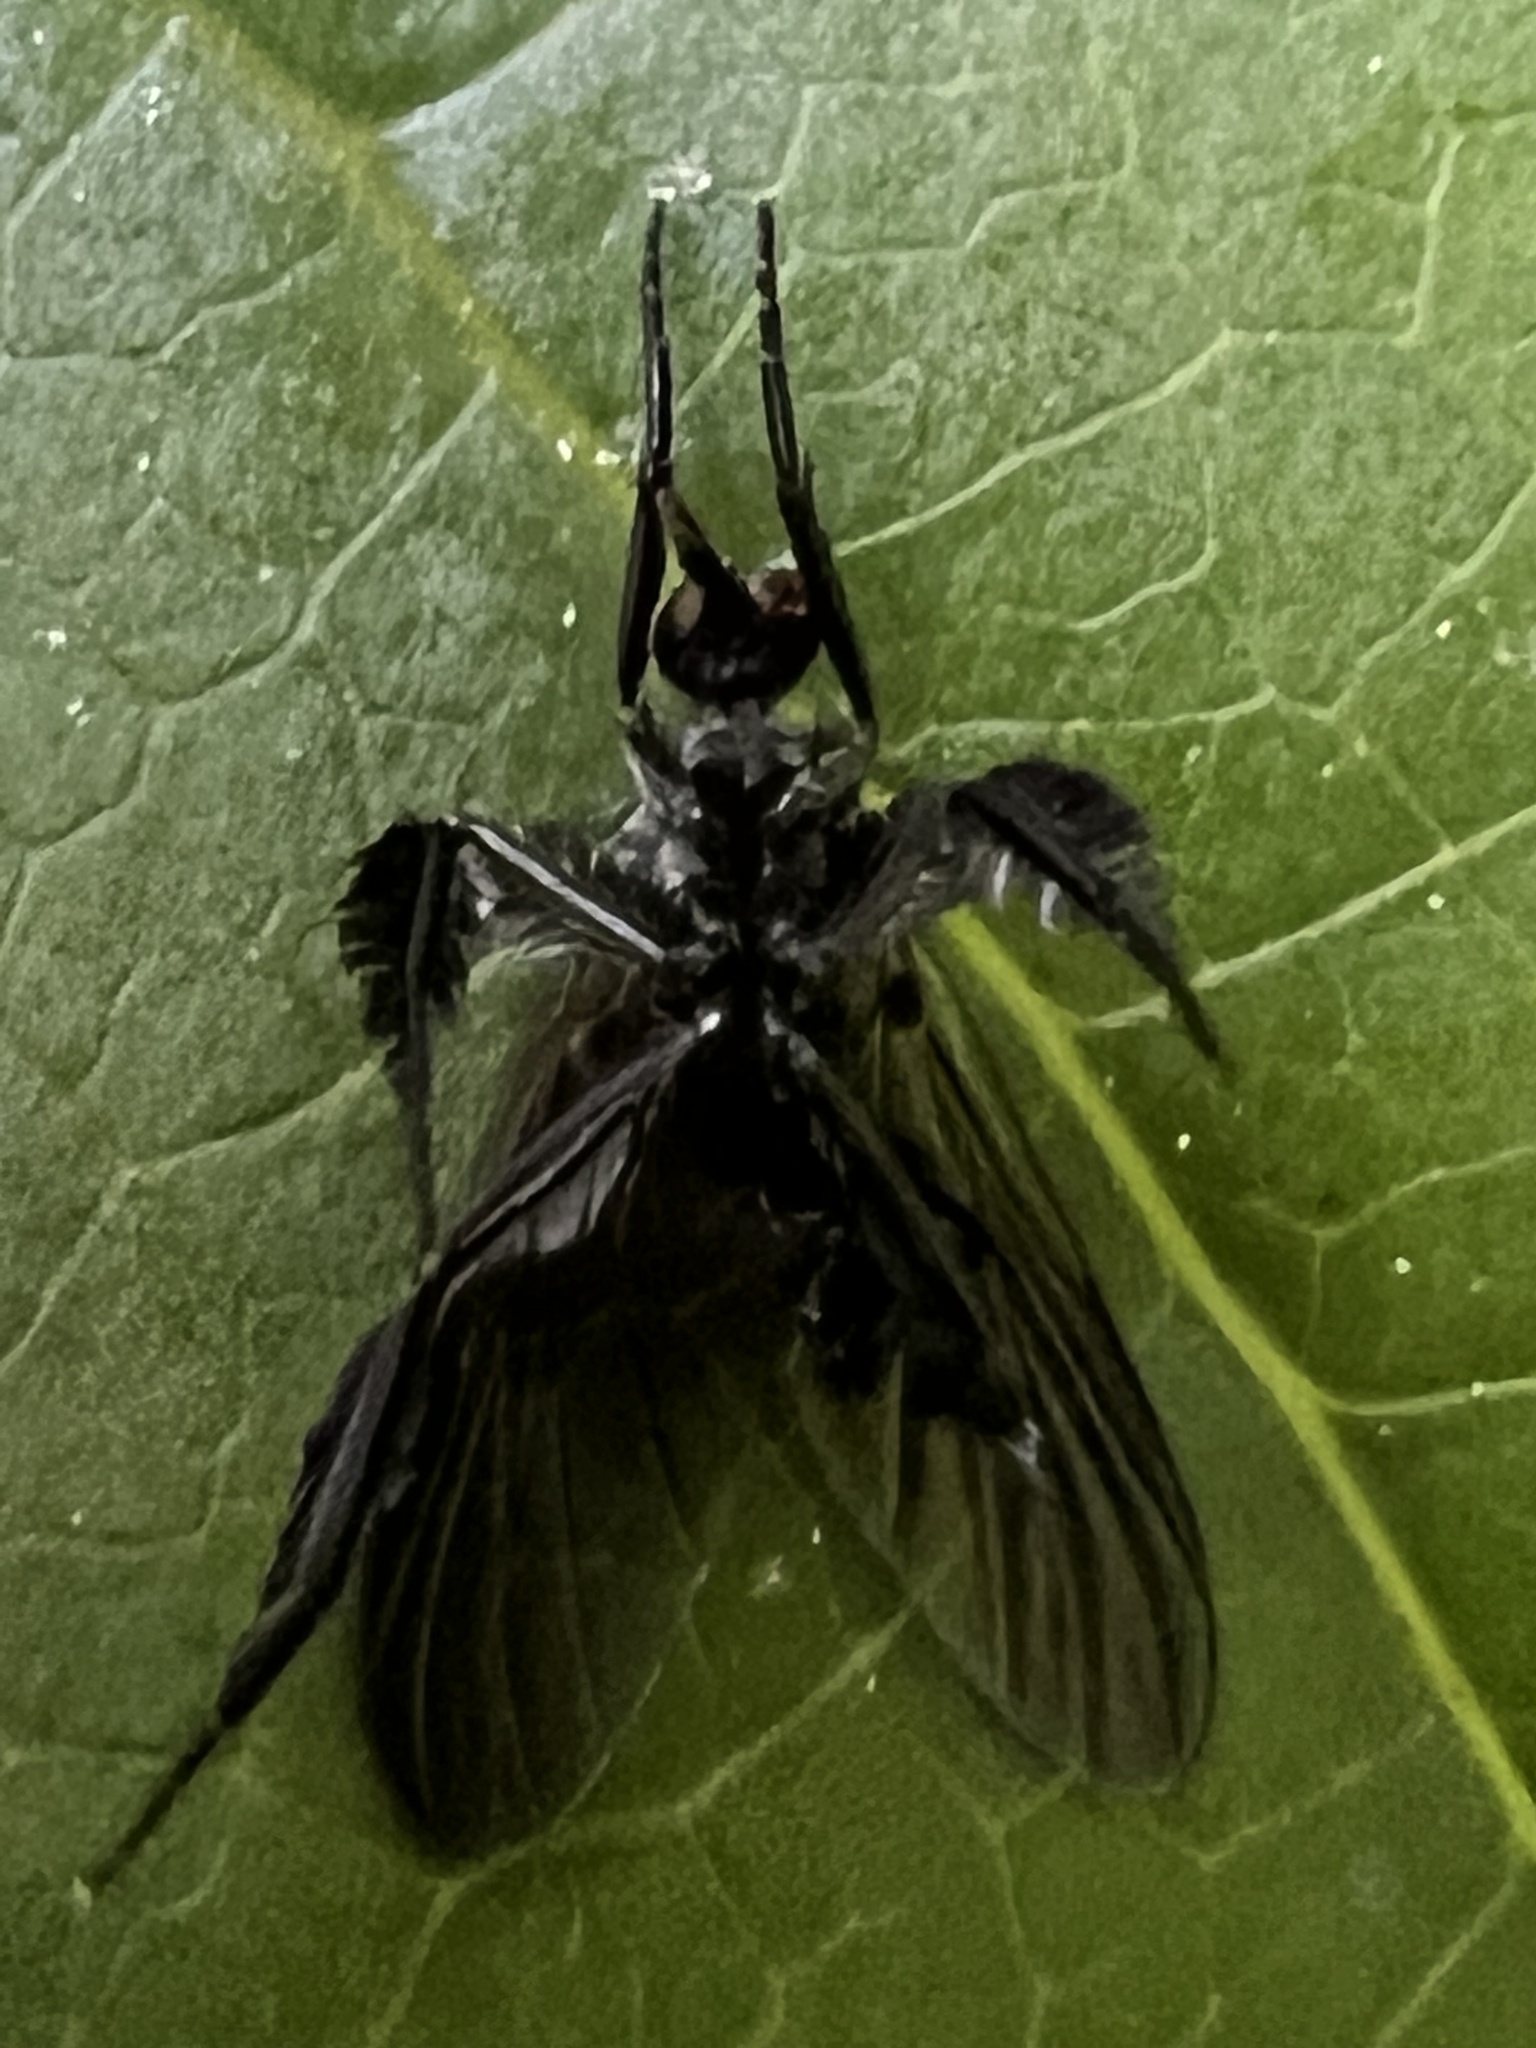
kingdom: Animalia
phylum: Arthropoda
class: Insecta
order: Diptera
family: Empididae
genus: Rhamphomyia
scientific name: Rhamphomyia longicauda
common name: Long-tailed dance fly
